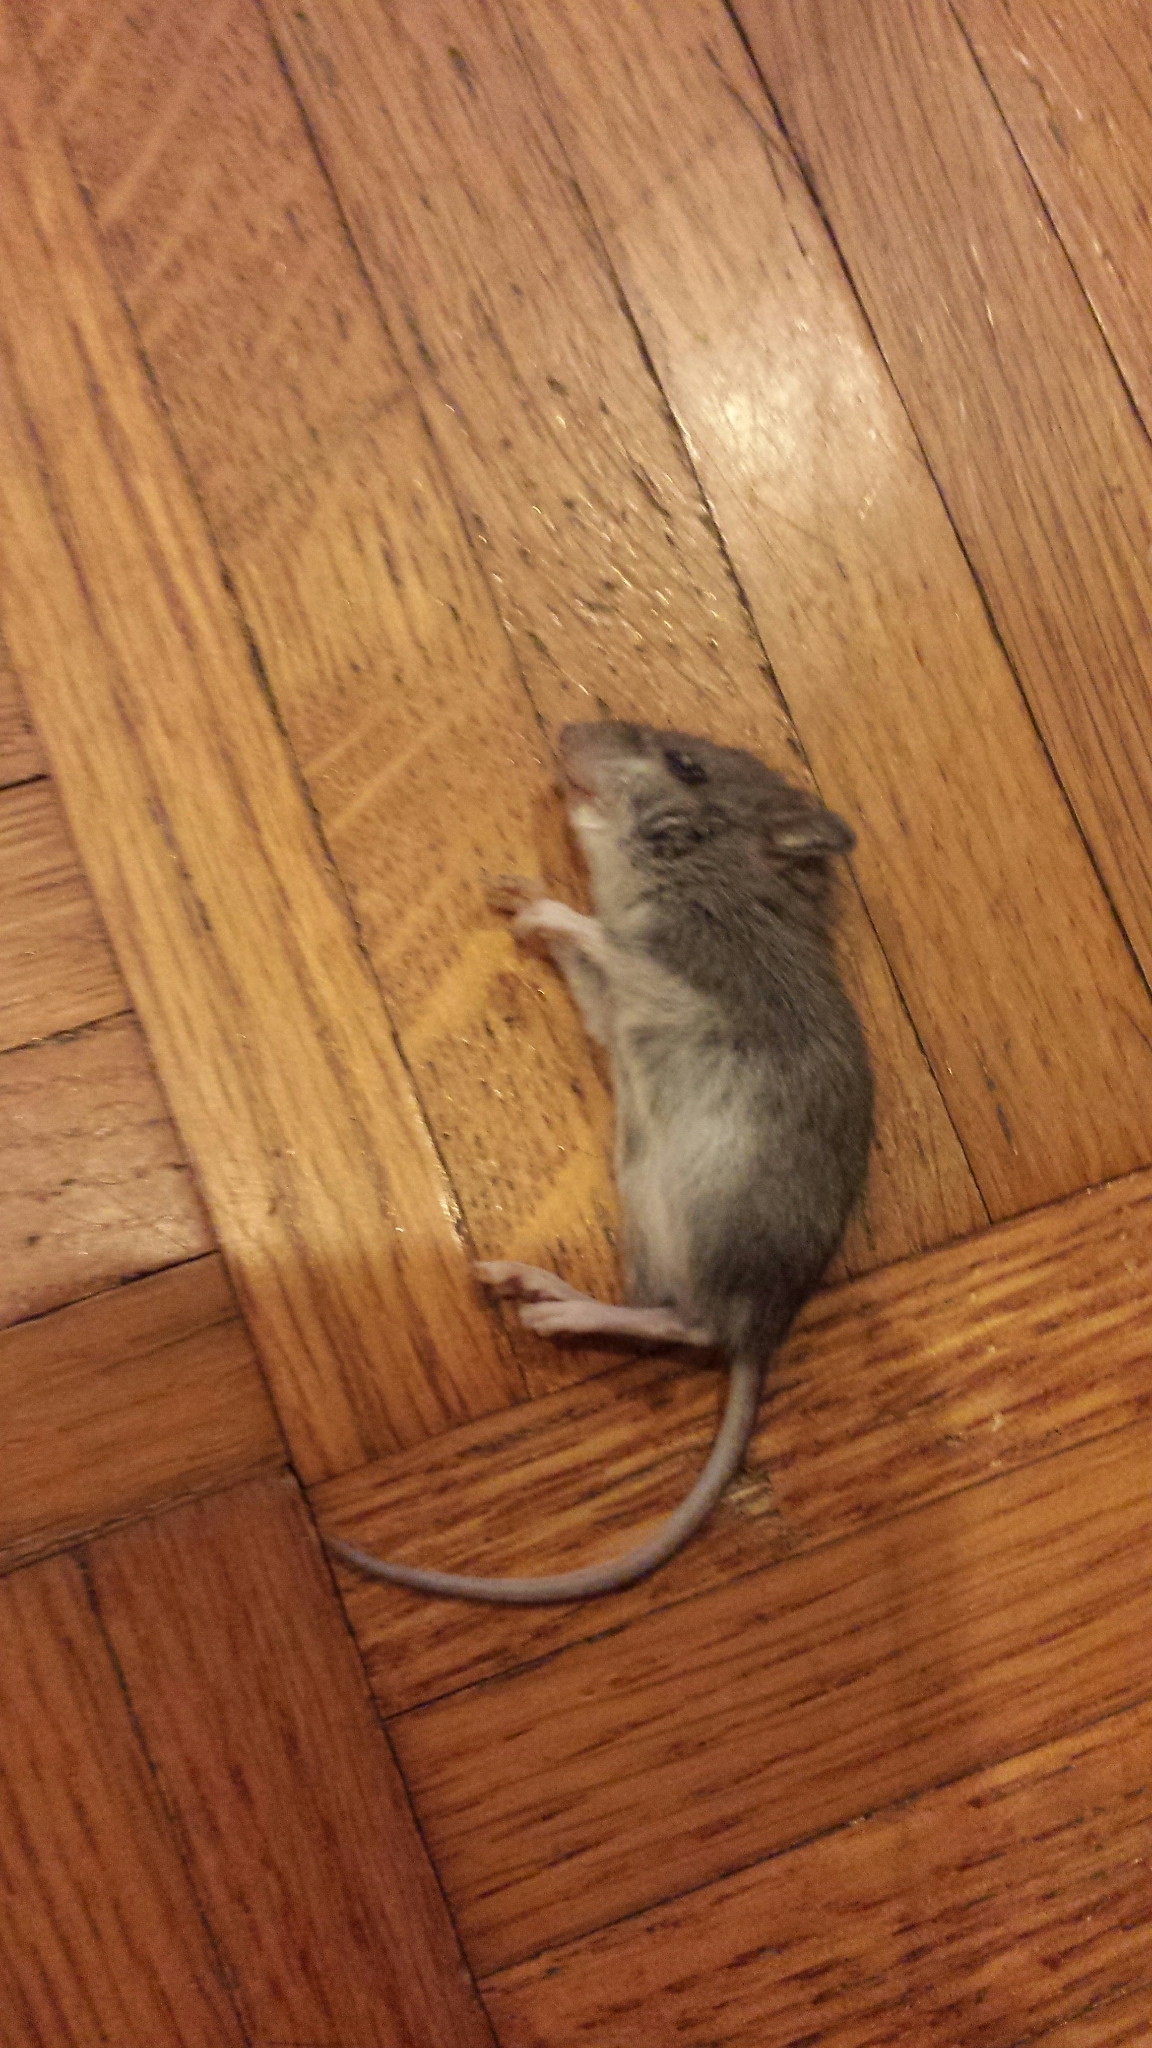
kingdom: Animalia
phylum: Chordata
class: Mammalia
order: Rodentia
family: Cricetidae
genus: Peromyscus
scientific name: Peromyscus maniculatus
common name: Deer mouse
